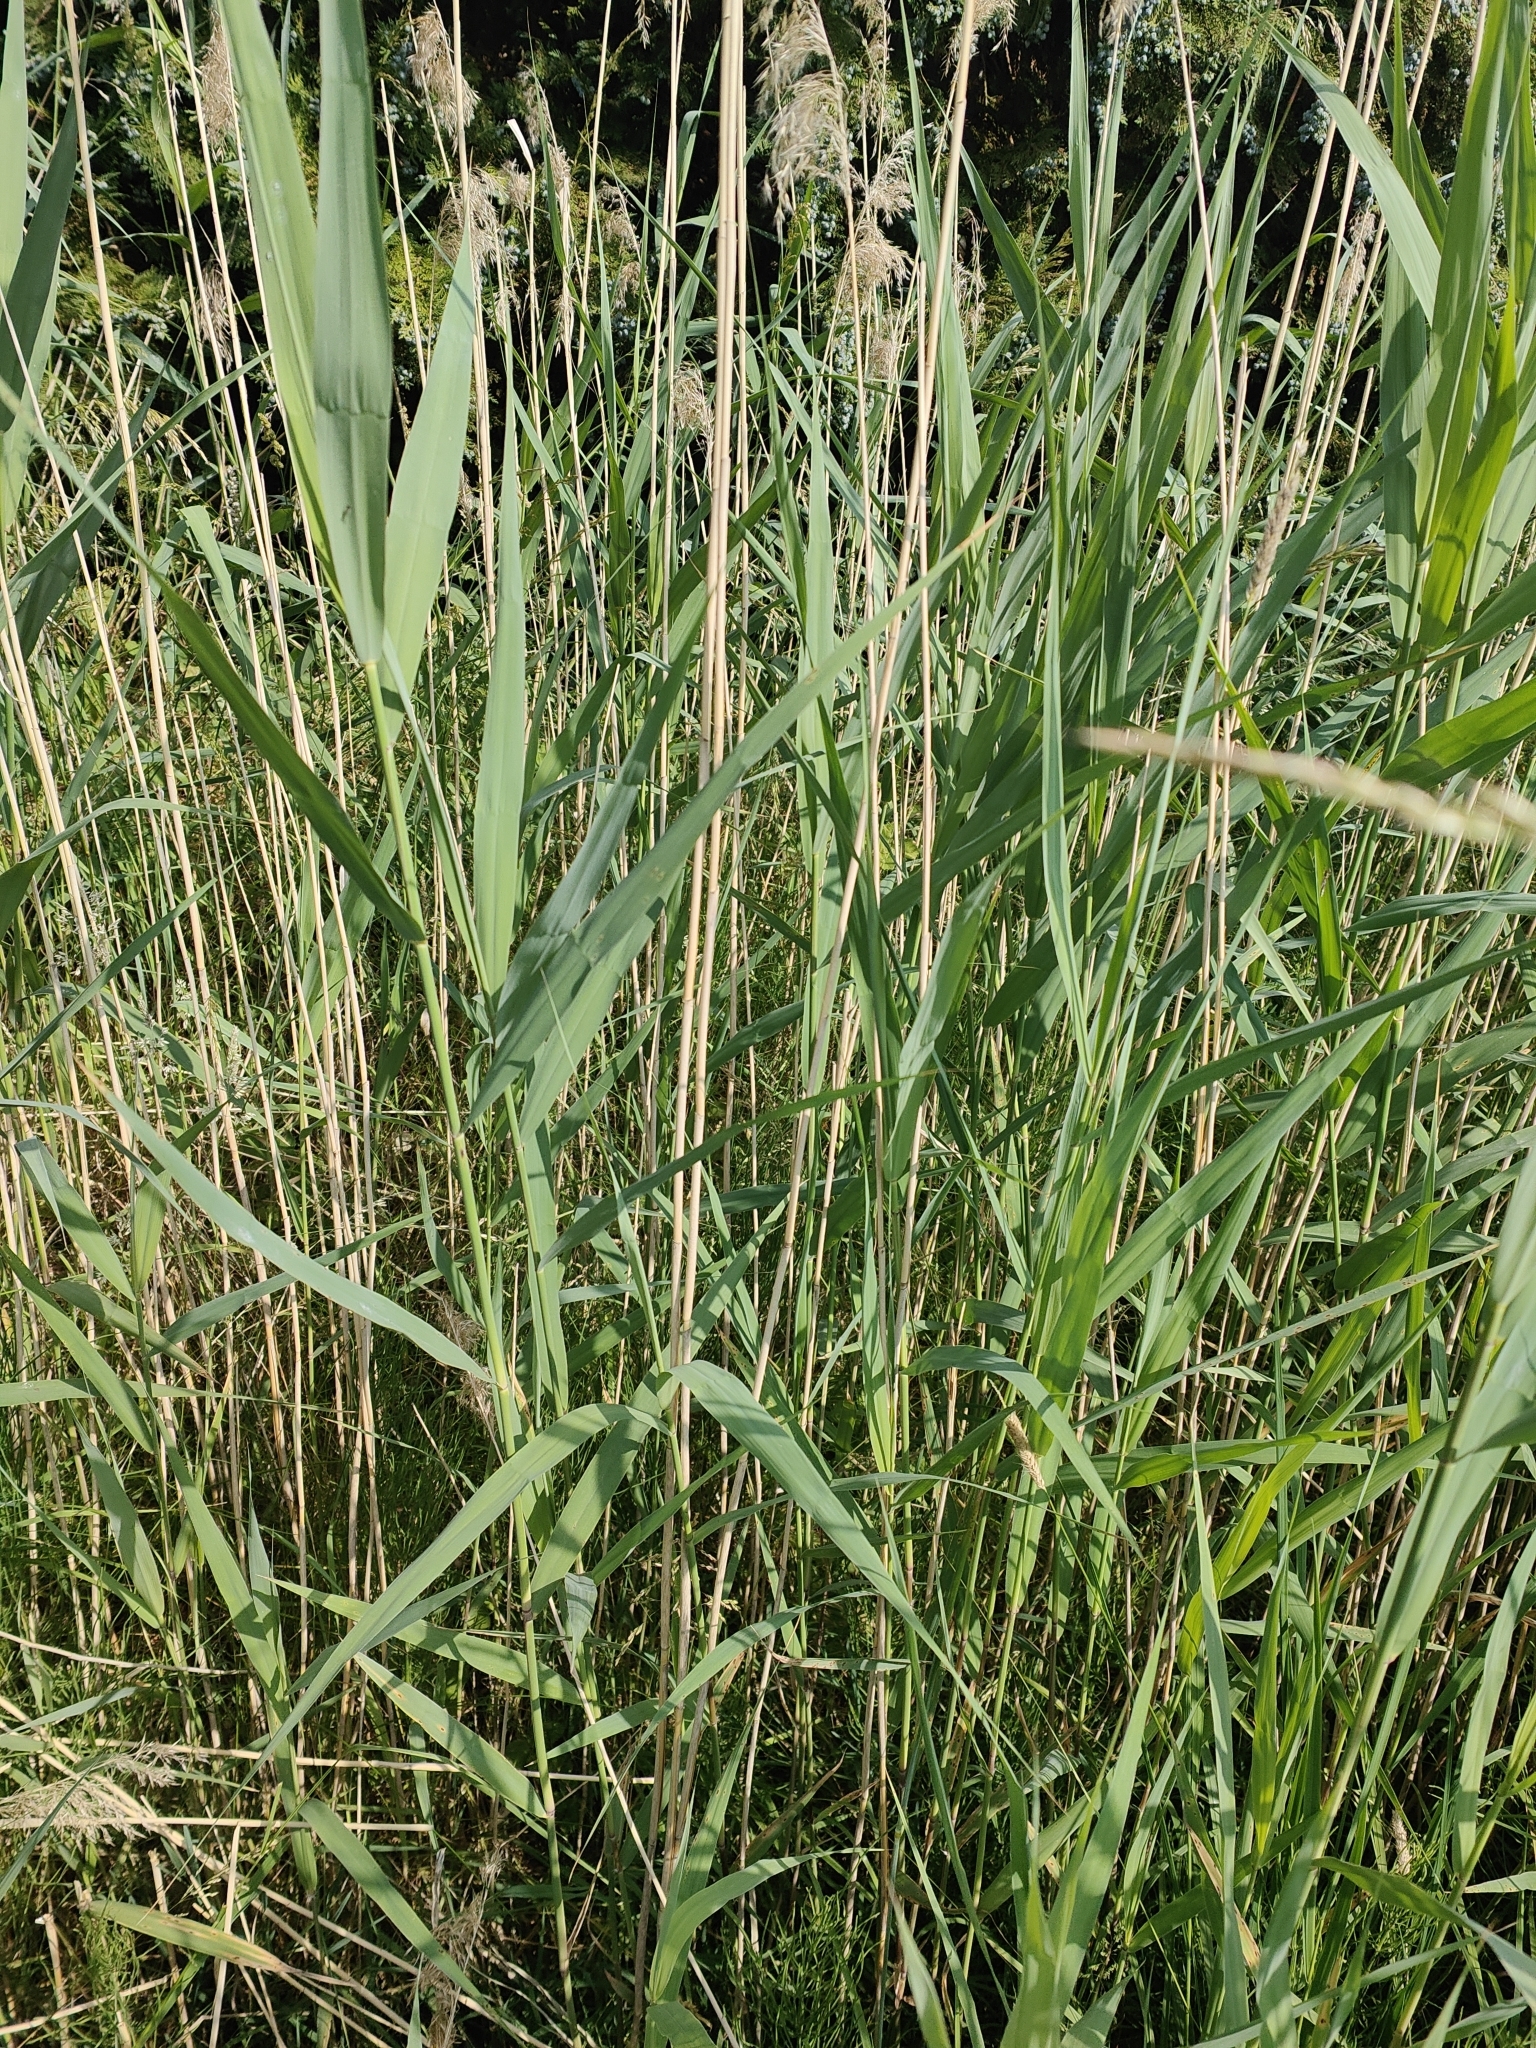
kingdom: Plantae
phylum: Tracheophyta
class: Liliopsida
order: Poales
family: Poaceae
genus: Phragmites
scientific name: Phragmites australis
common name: Common reed
